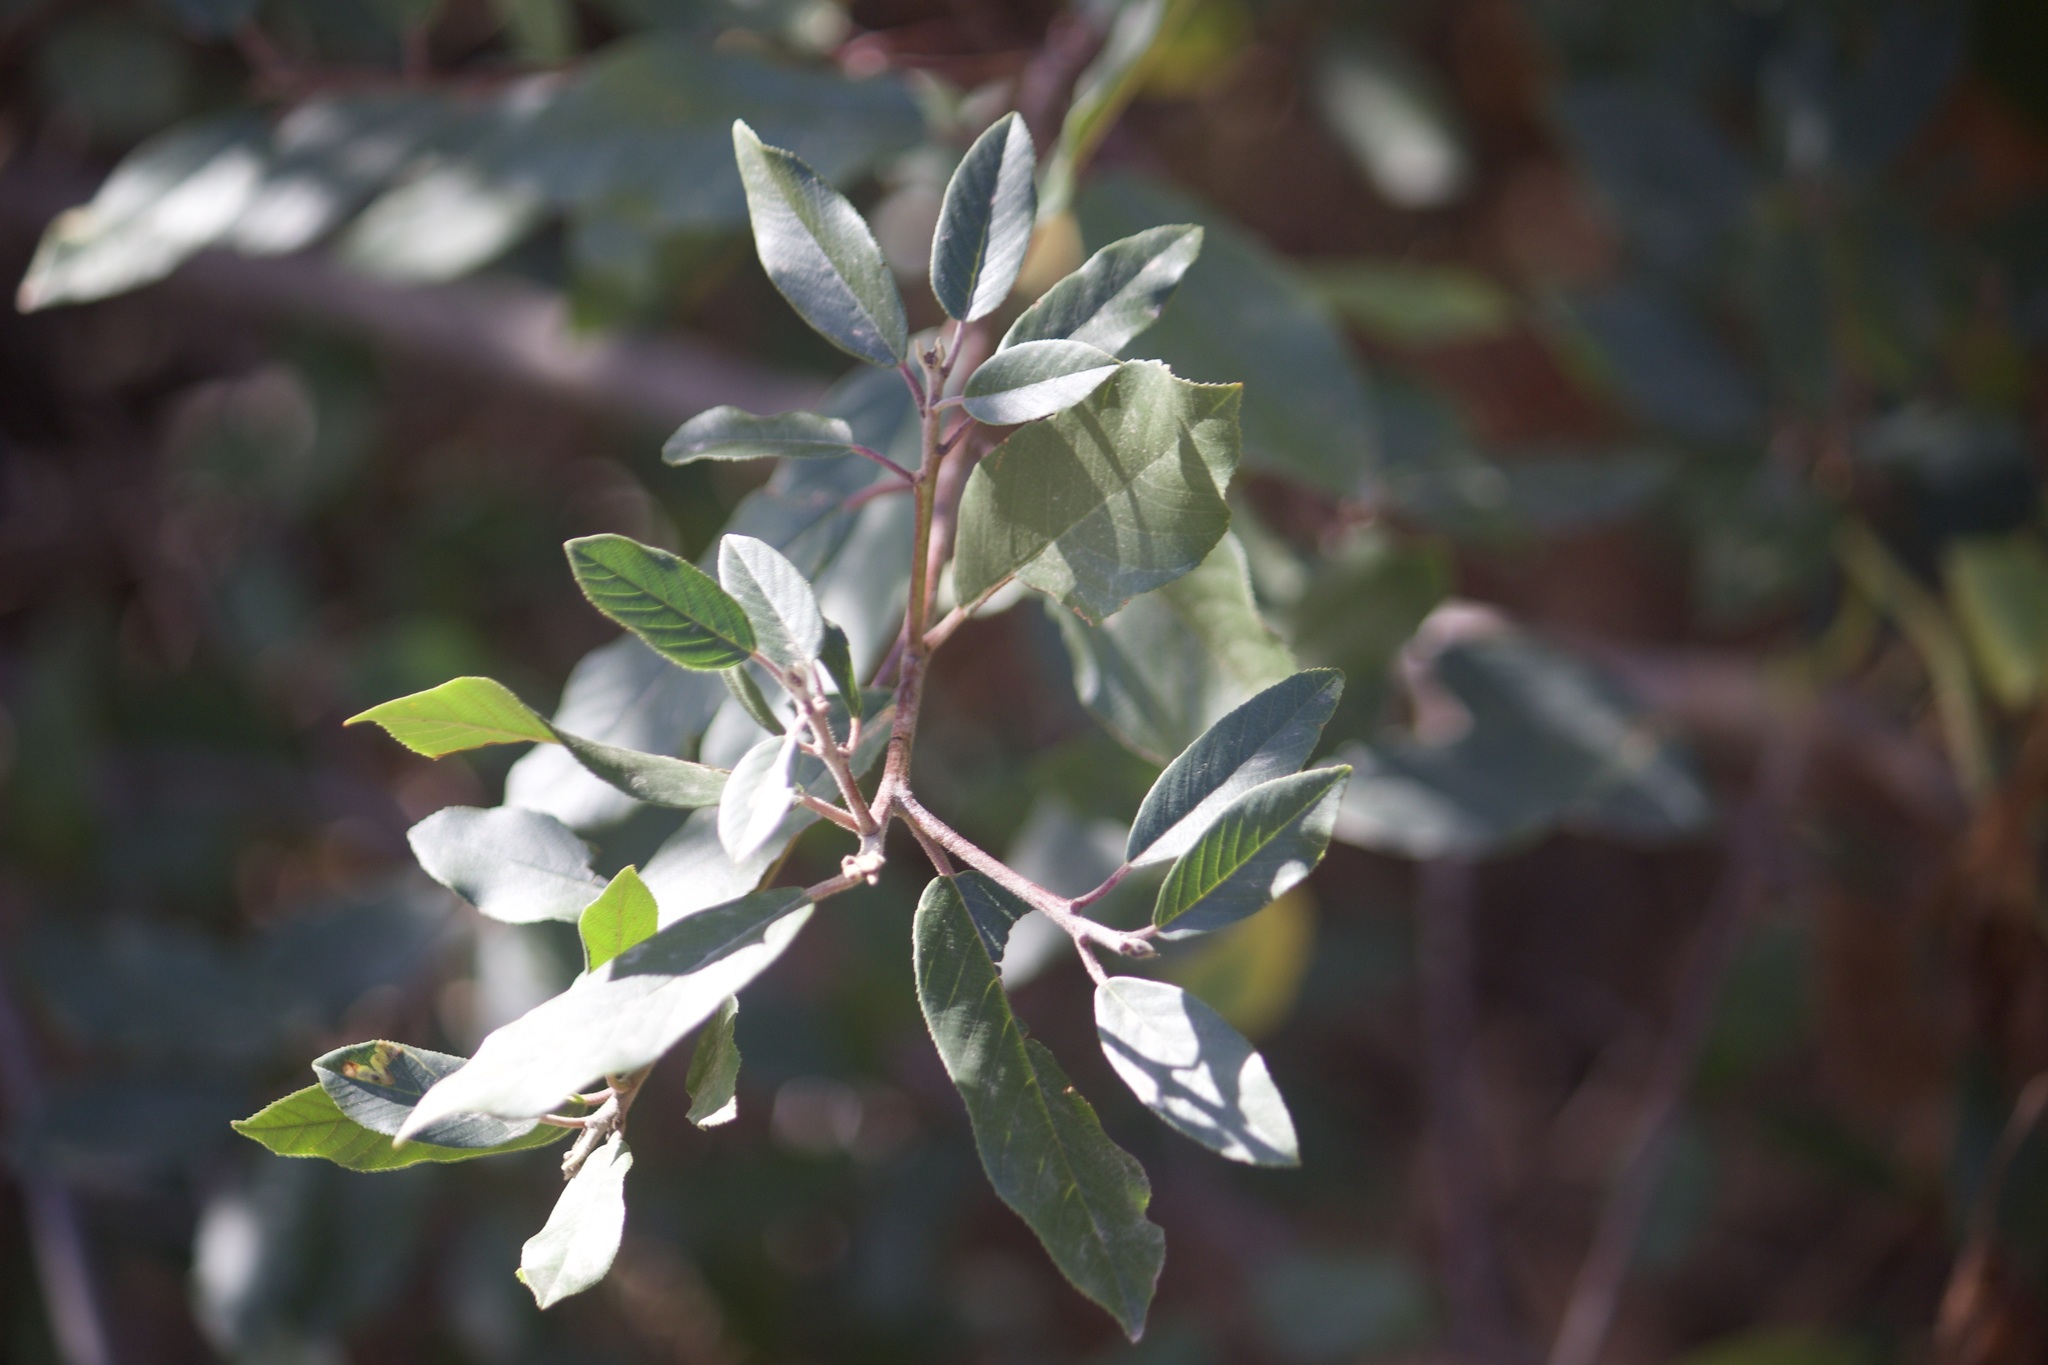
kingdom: Plantae
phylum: Tracheophyta
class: Magnoliopsida
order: Rosales
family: Rhamnaceae
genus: Frangula
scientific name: Frangula californica
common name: California buckthorn
